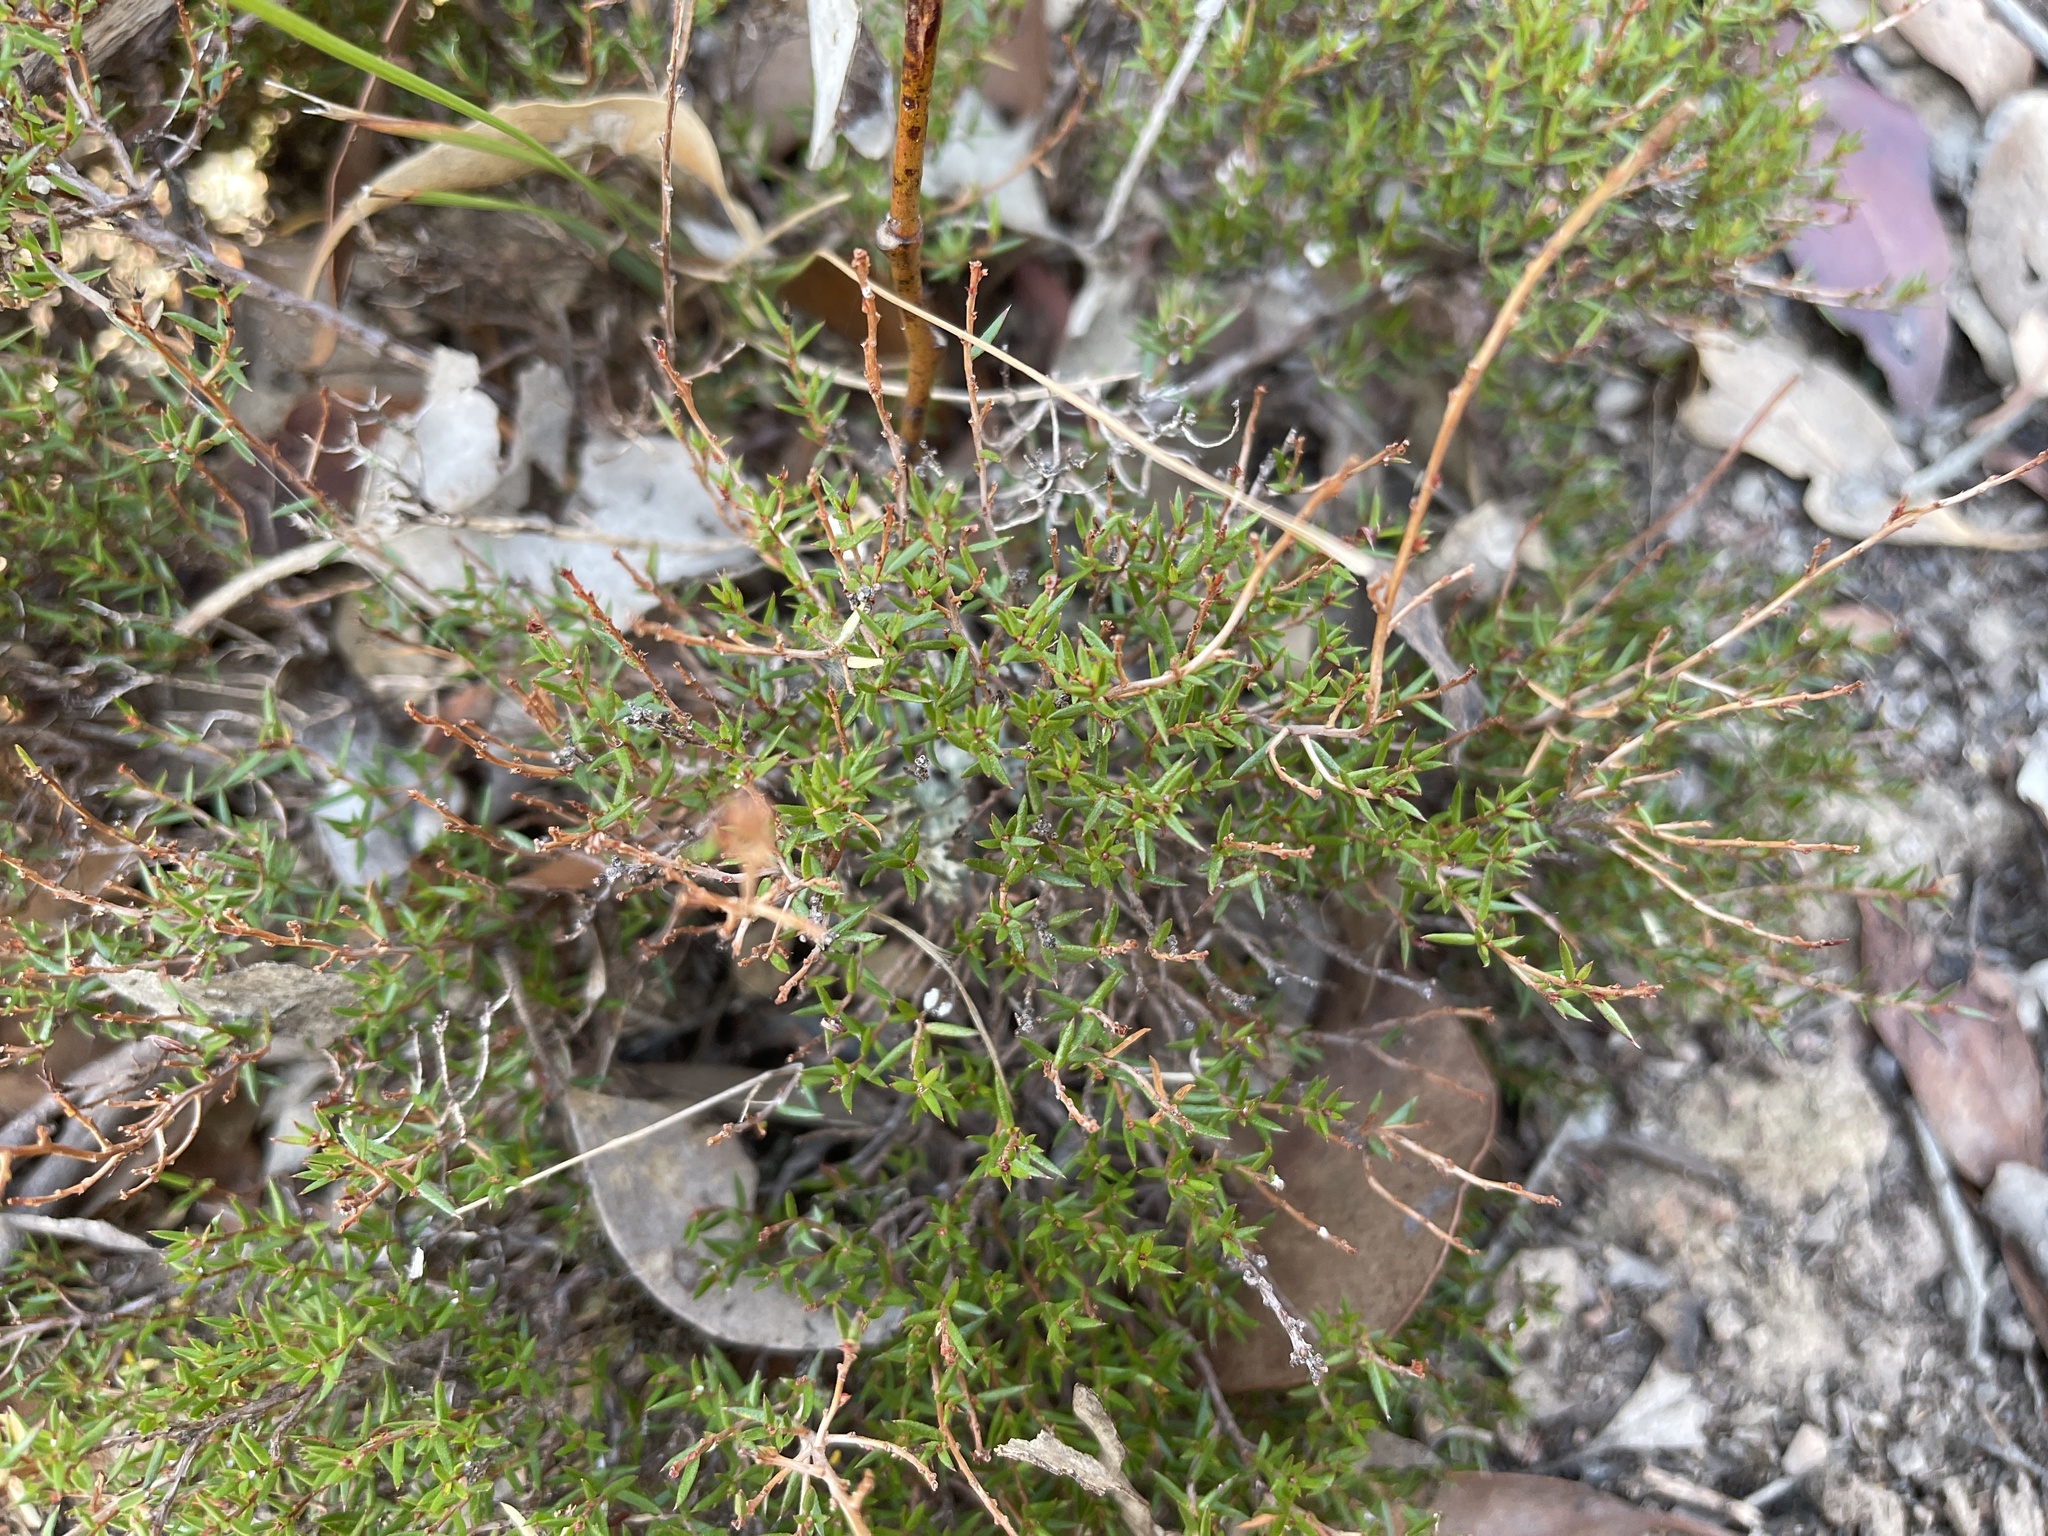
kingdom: Plantae
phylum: Tracheophyta
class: Magnoliopsida
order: Dilleniales
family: Dilleniaceae
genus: Hibbertia
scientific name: Hibbertia exutiacies
